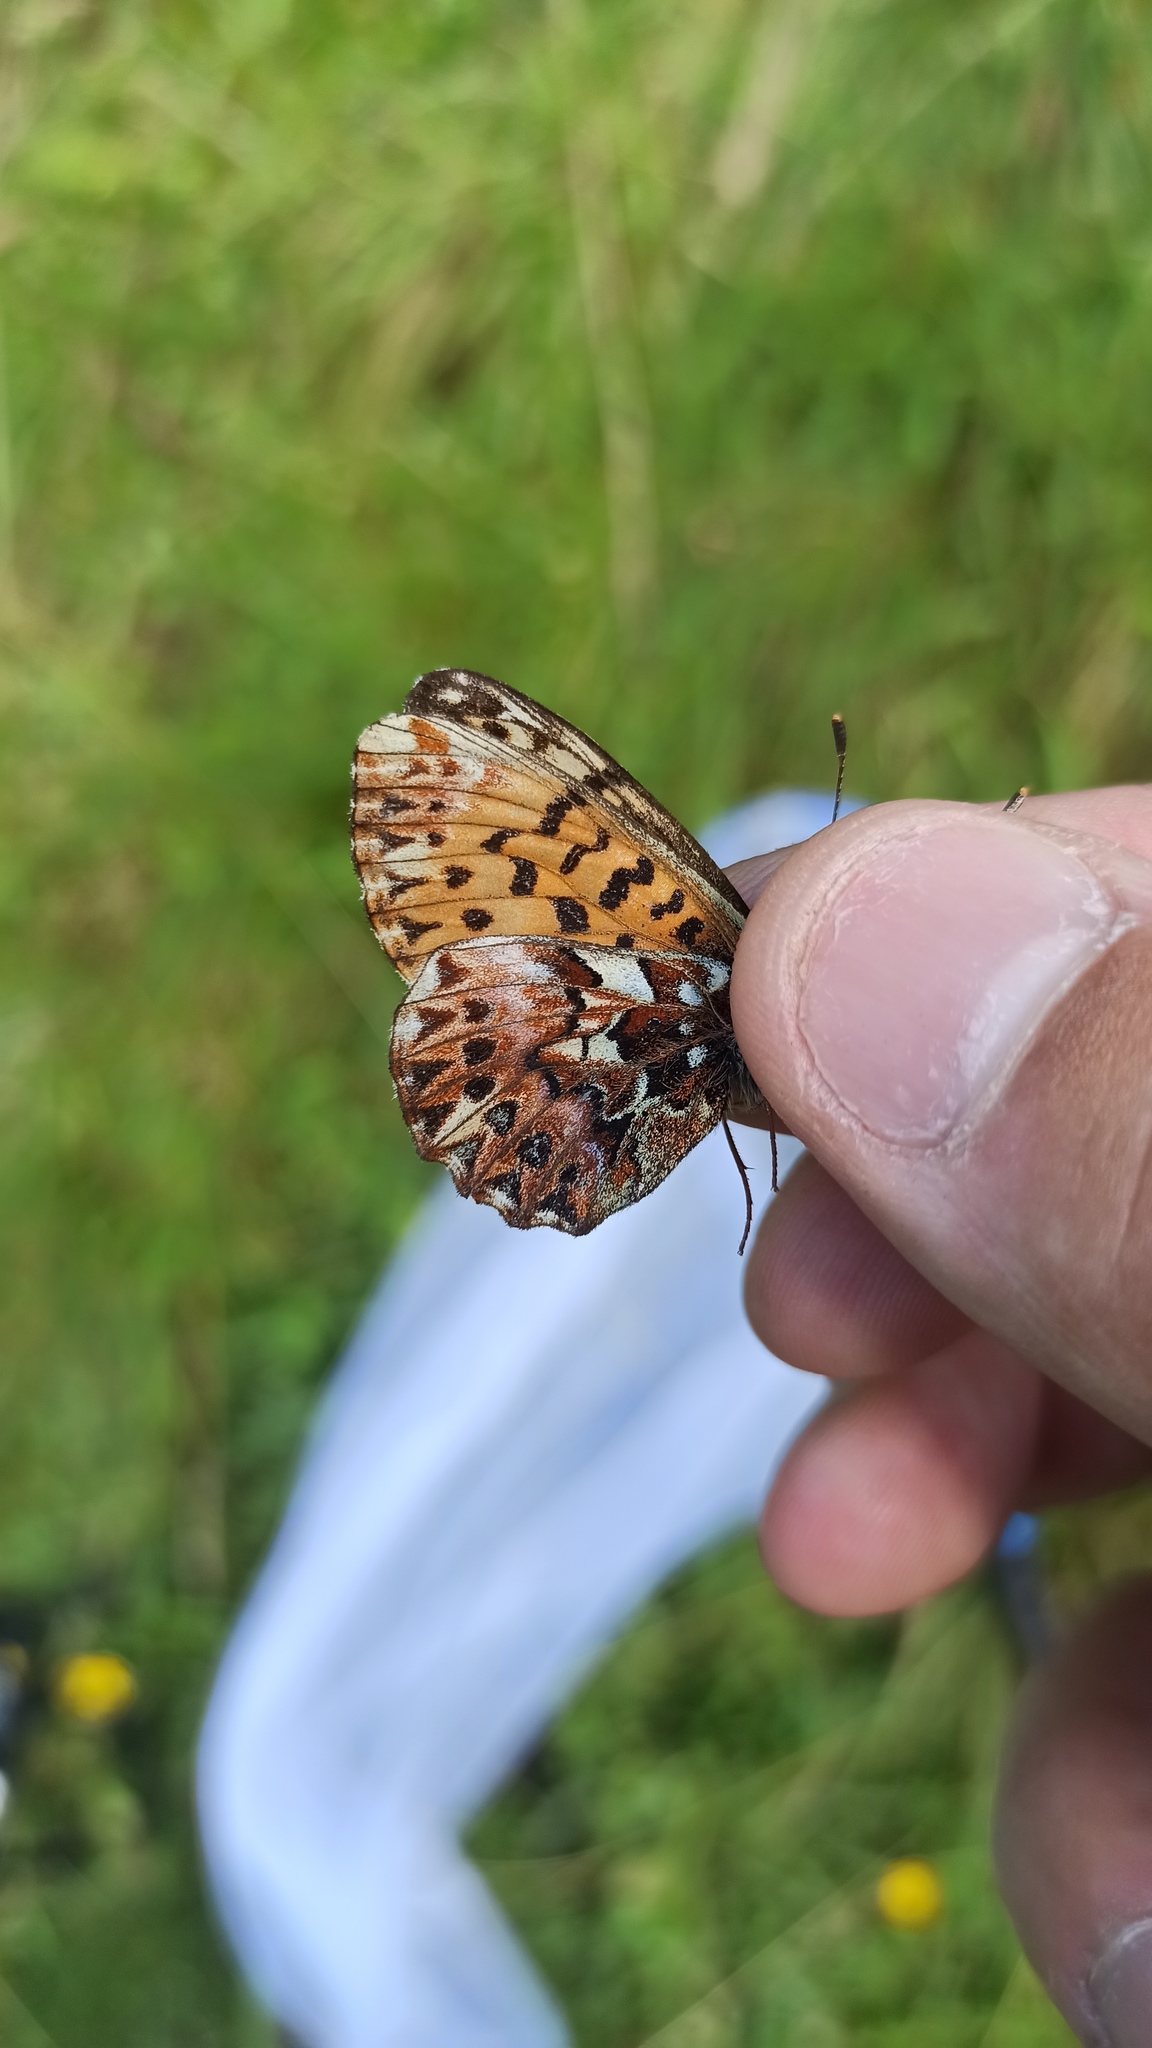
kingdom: Animalia
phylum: Arthropoda
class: Insecta
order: Lepidoptera
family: Nymphalidae
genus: Boloria
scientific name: Boloria titania
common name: Titania's fritillary
